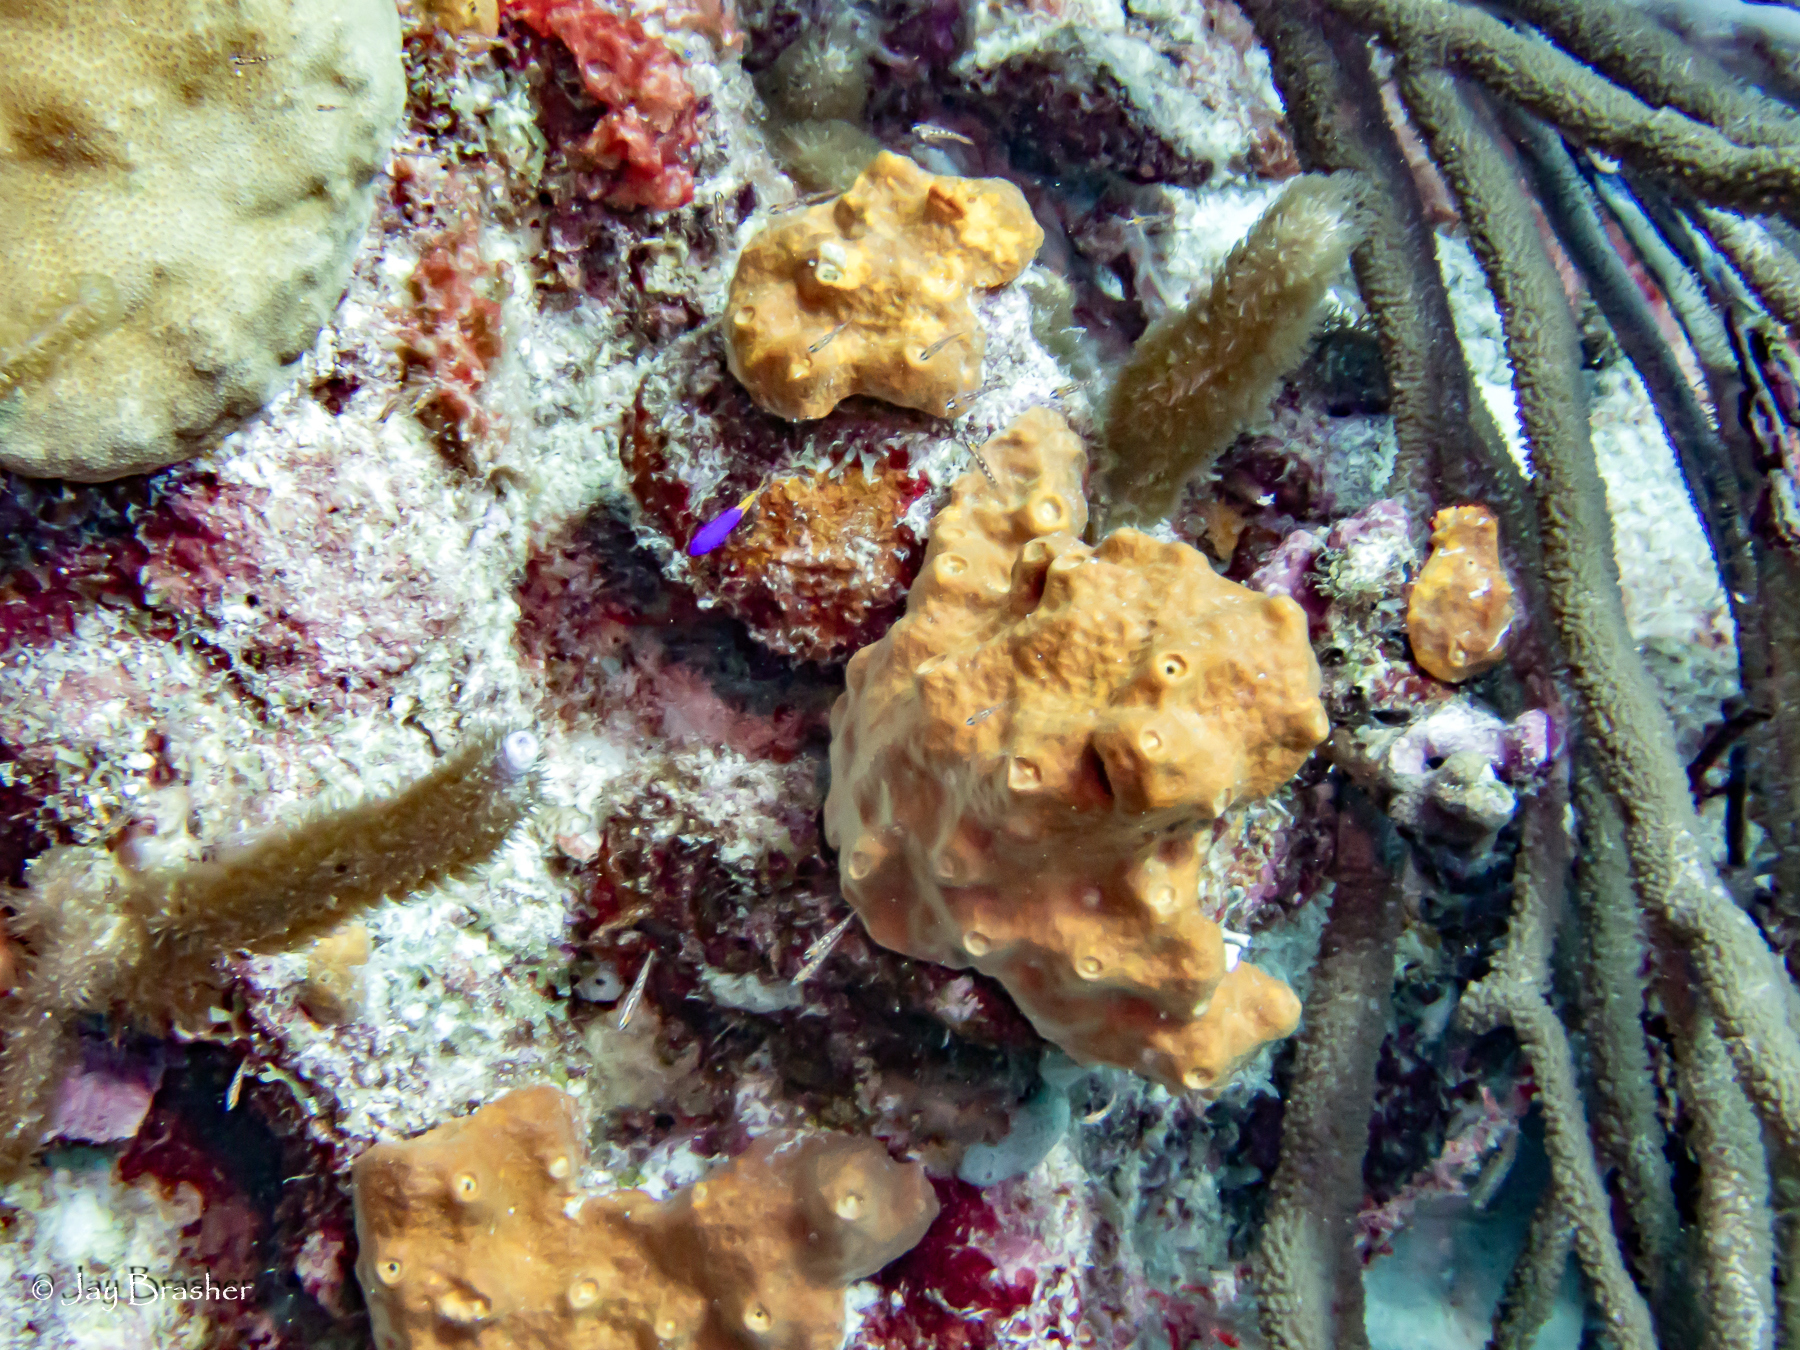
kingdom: Animalia
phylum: Chordata
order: Perciformes
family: Grammatidae
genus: Gramma
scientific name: Gramma loreto
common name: Fairy basslet
